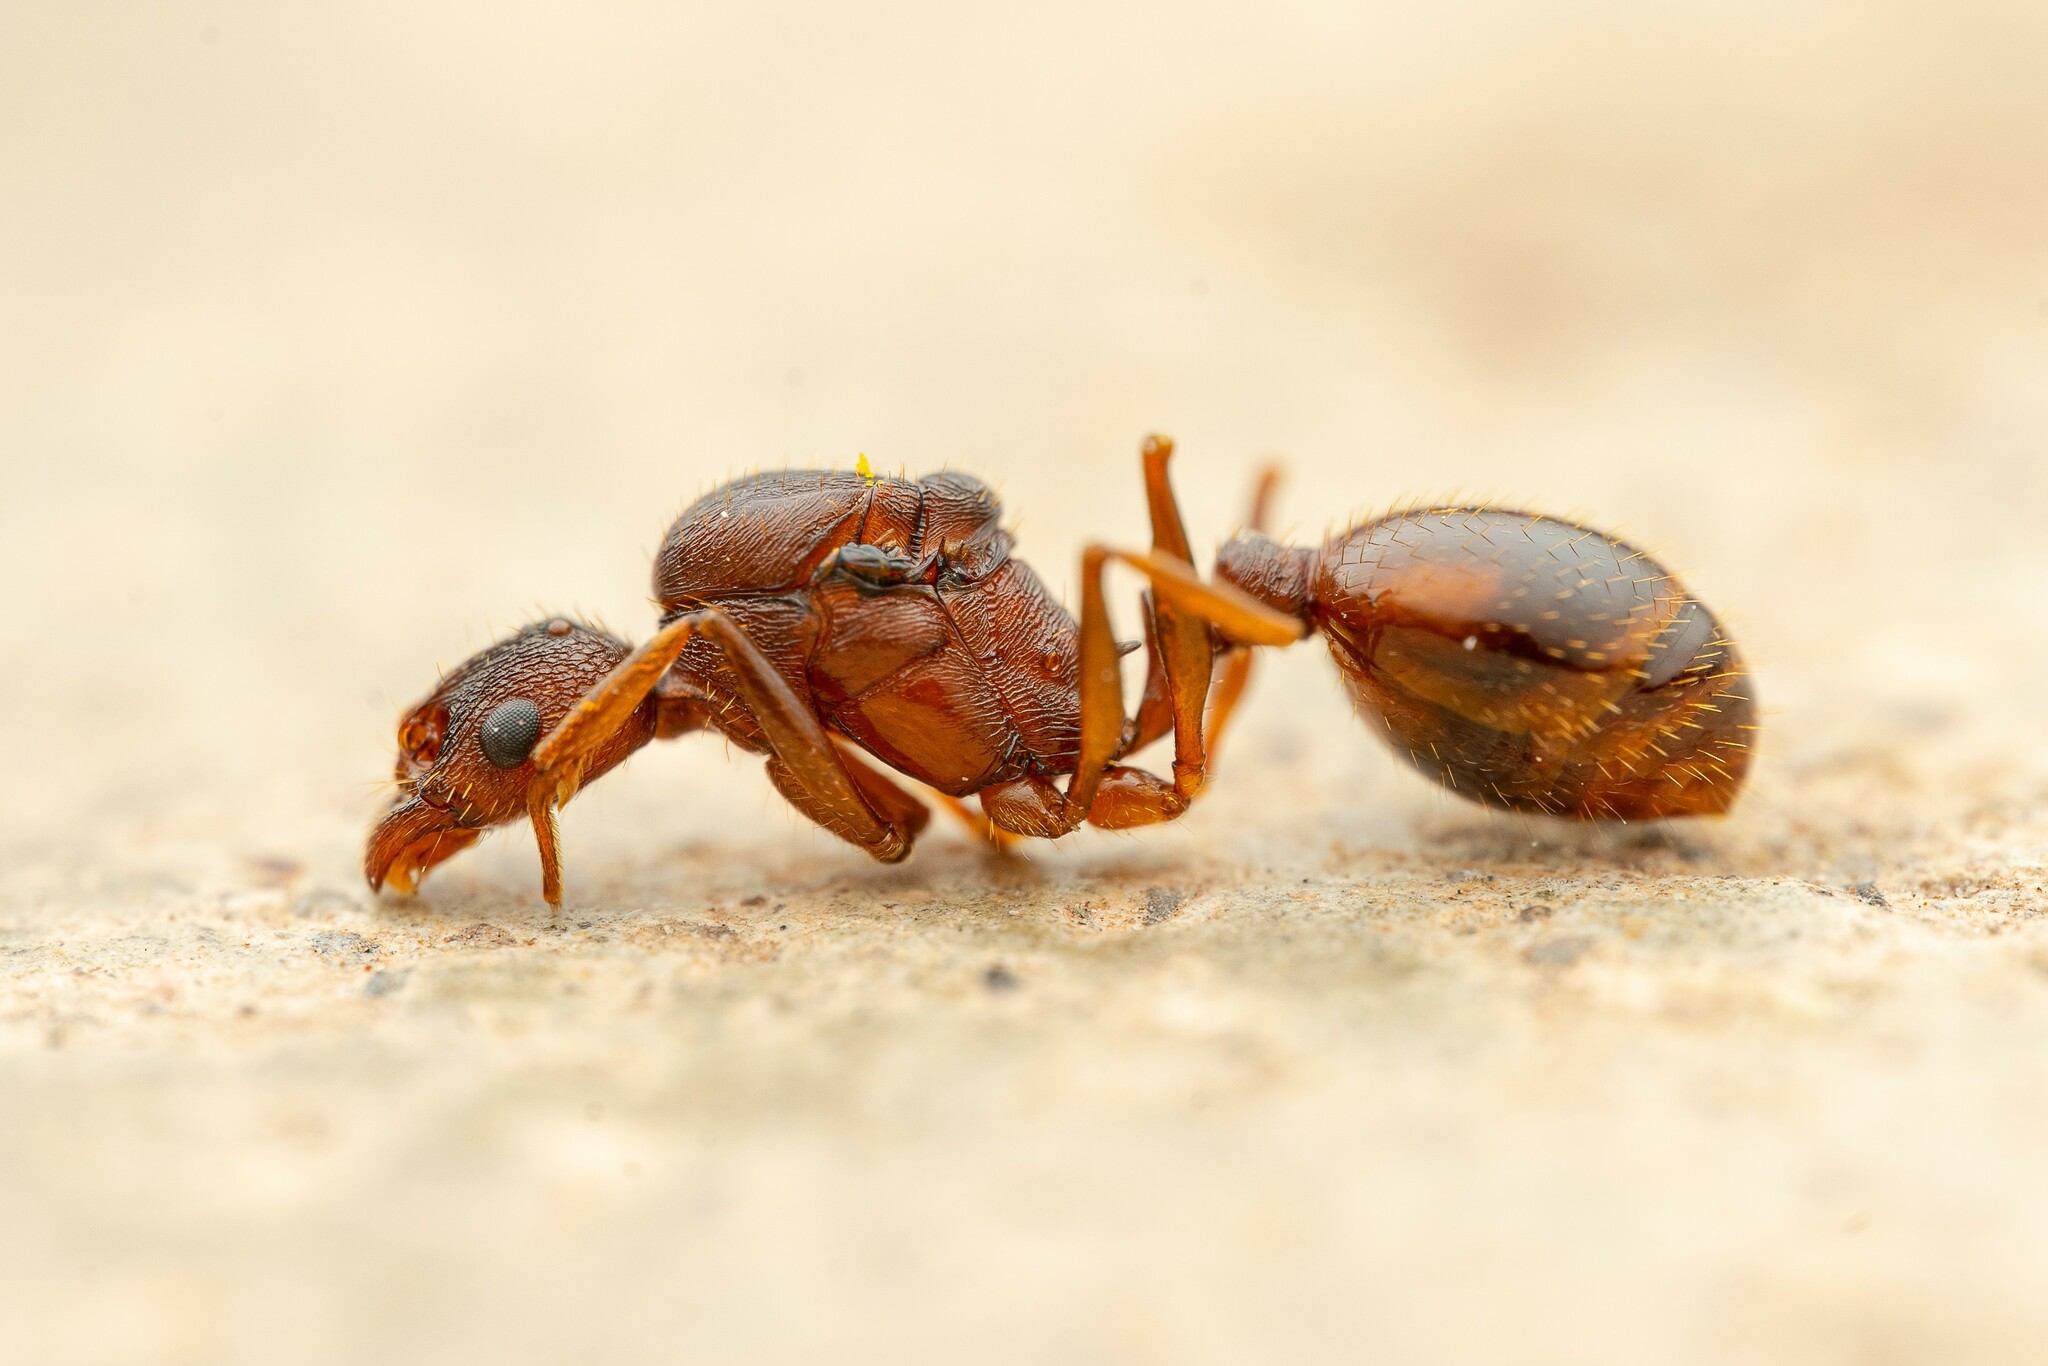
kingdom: Animalia
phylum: Arthropoda
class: Insecta
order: Hymenoptera
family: Formicidae
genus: Aphaenogaster
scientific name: Aphaenogaster texana
